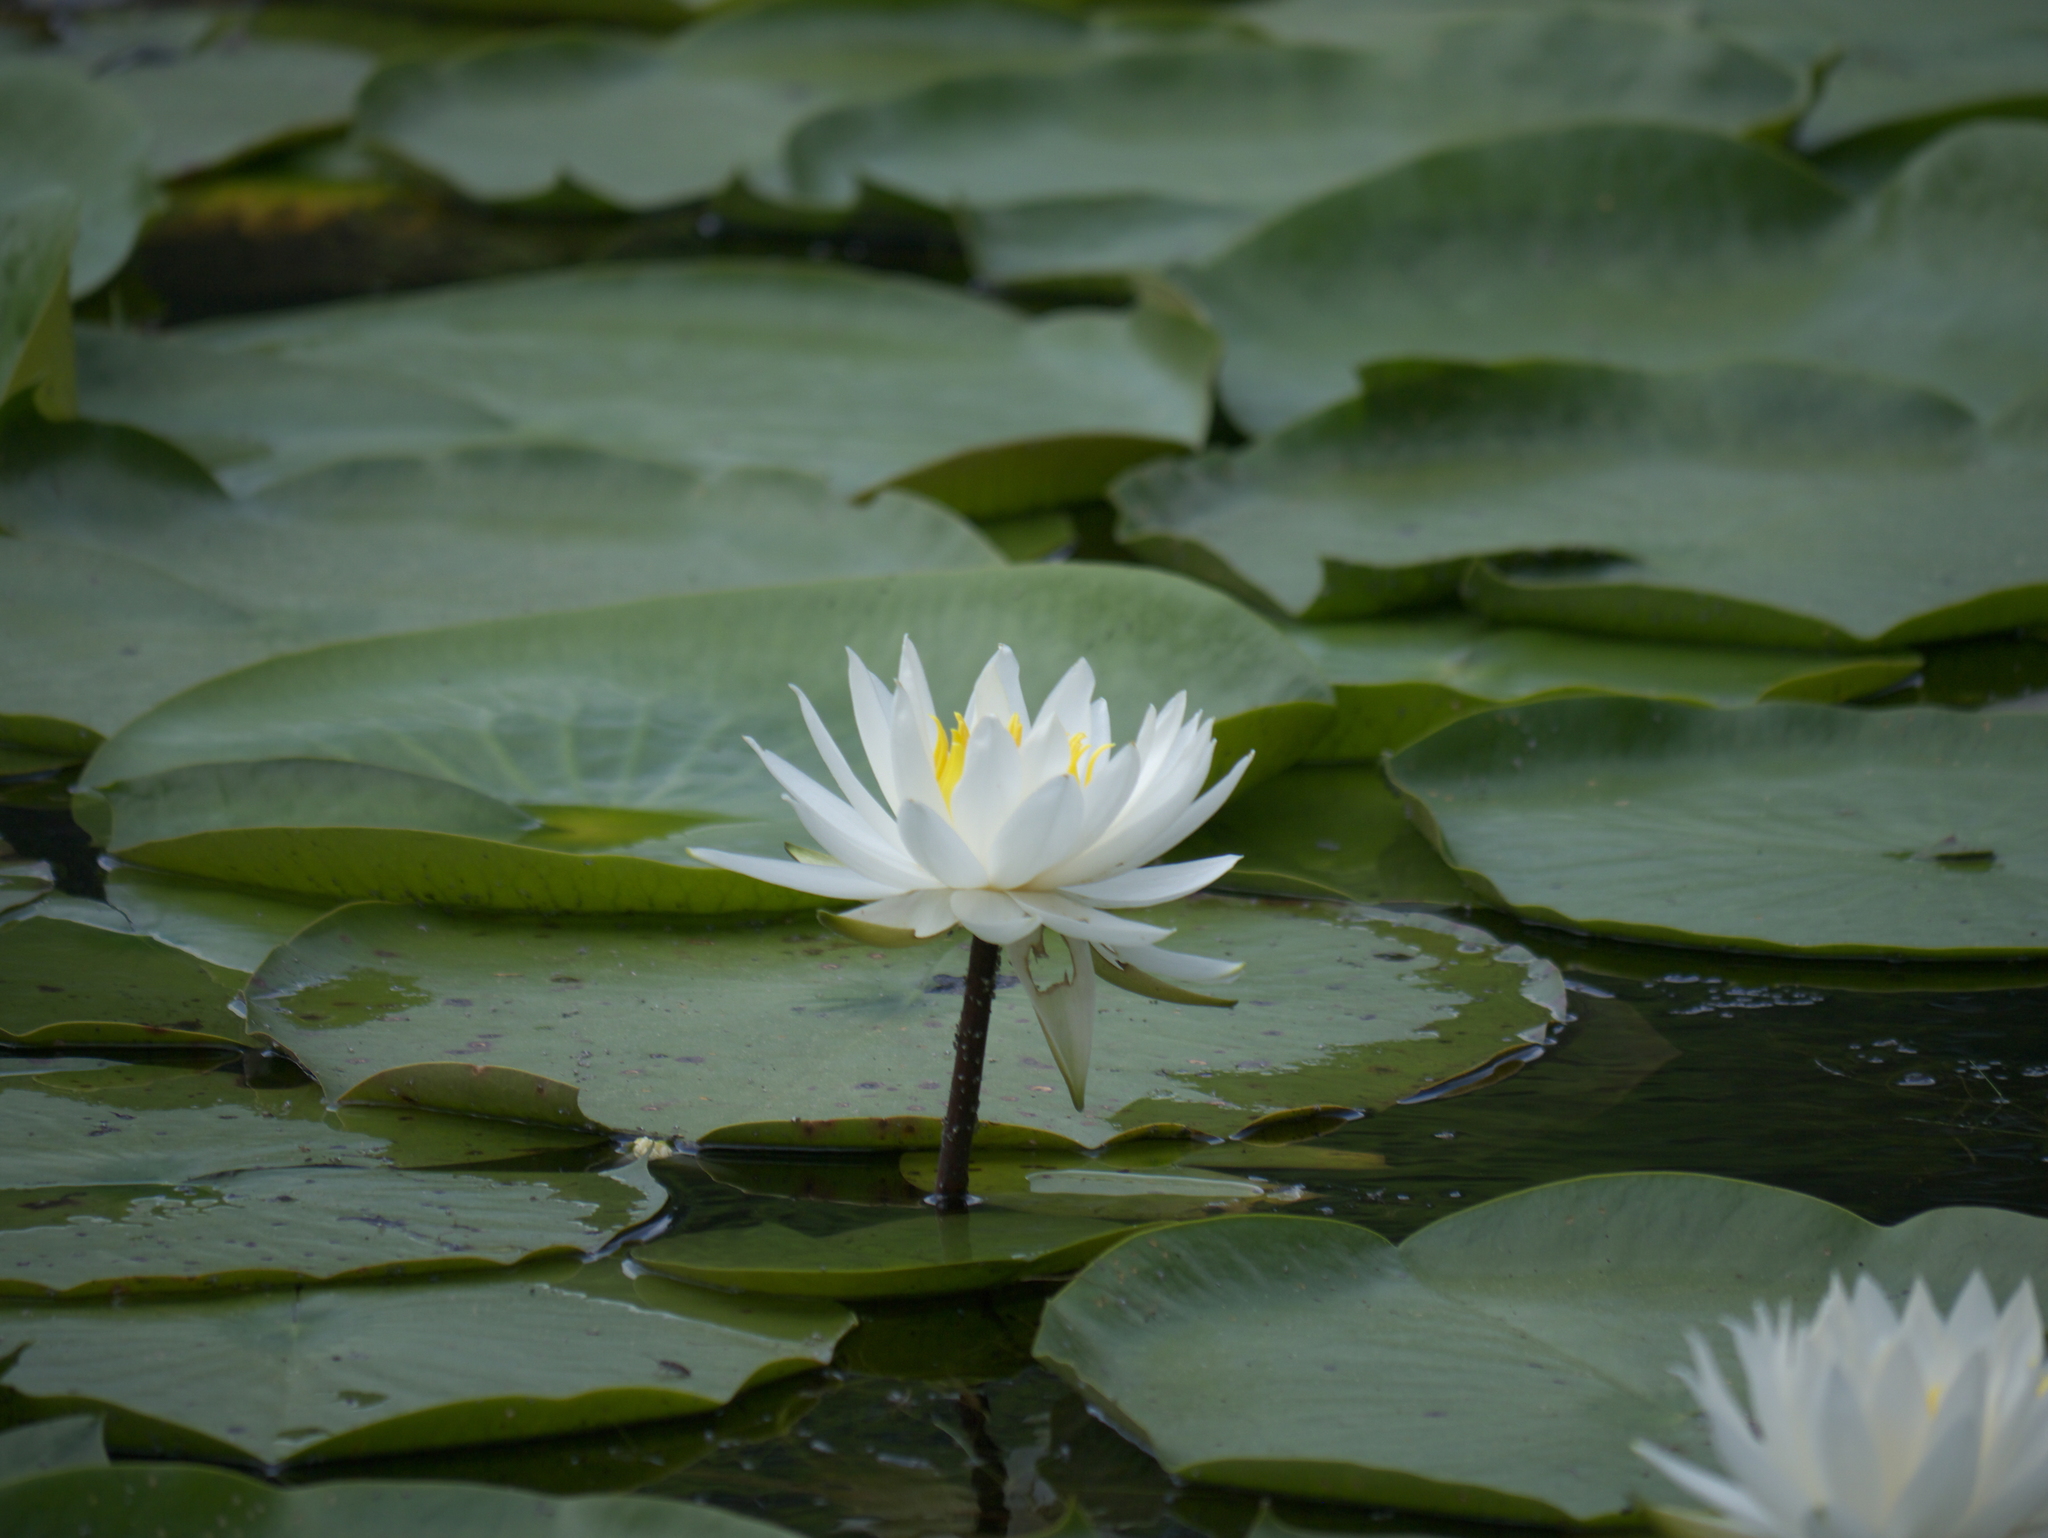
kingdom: Plantae
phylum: Tracheophyta
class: Magnoliopsida
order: Nymphaeales
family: Nymphaeaceae
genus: Nymphaea
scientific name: Nymphaea odorata
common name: Fragrant water-lily
